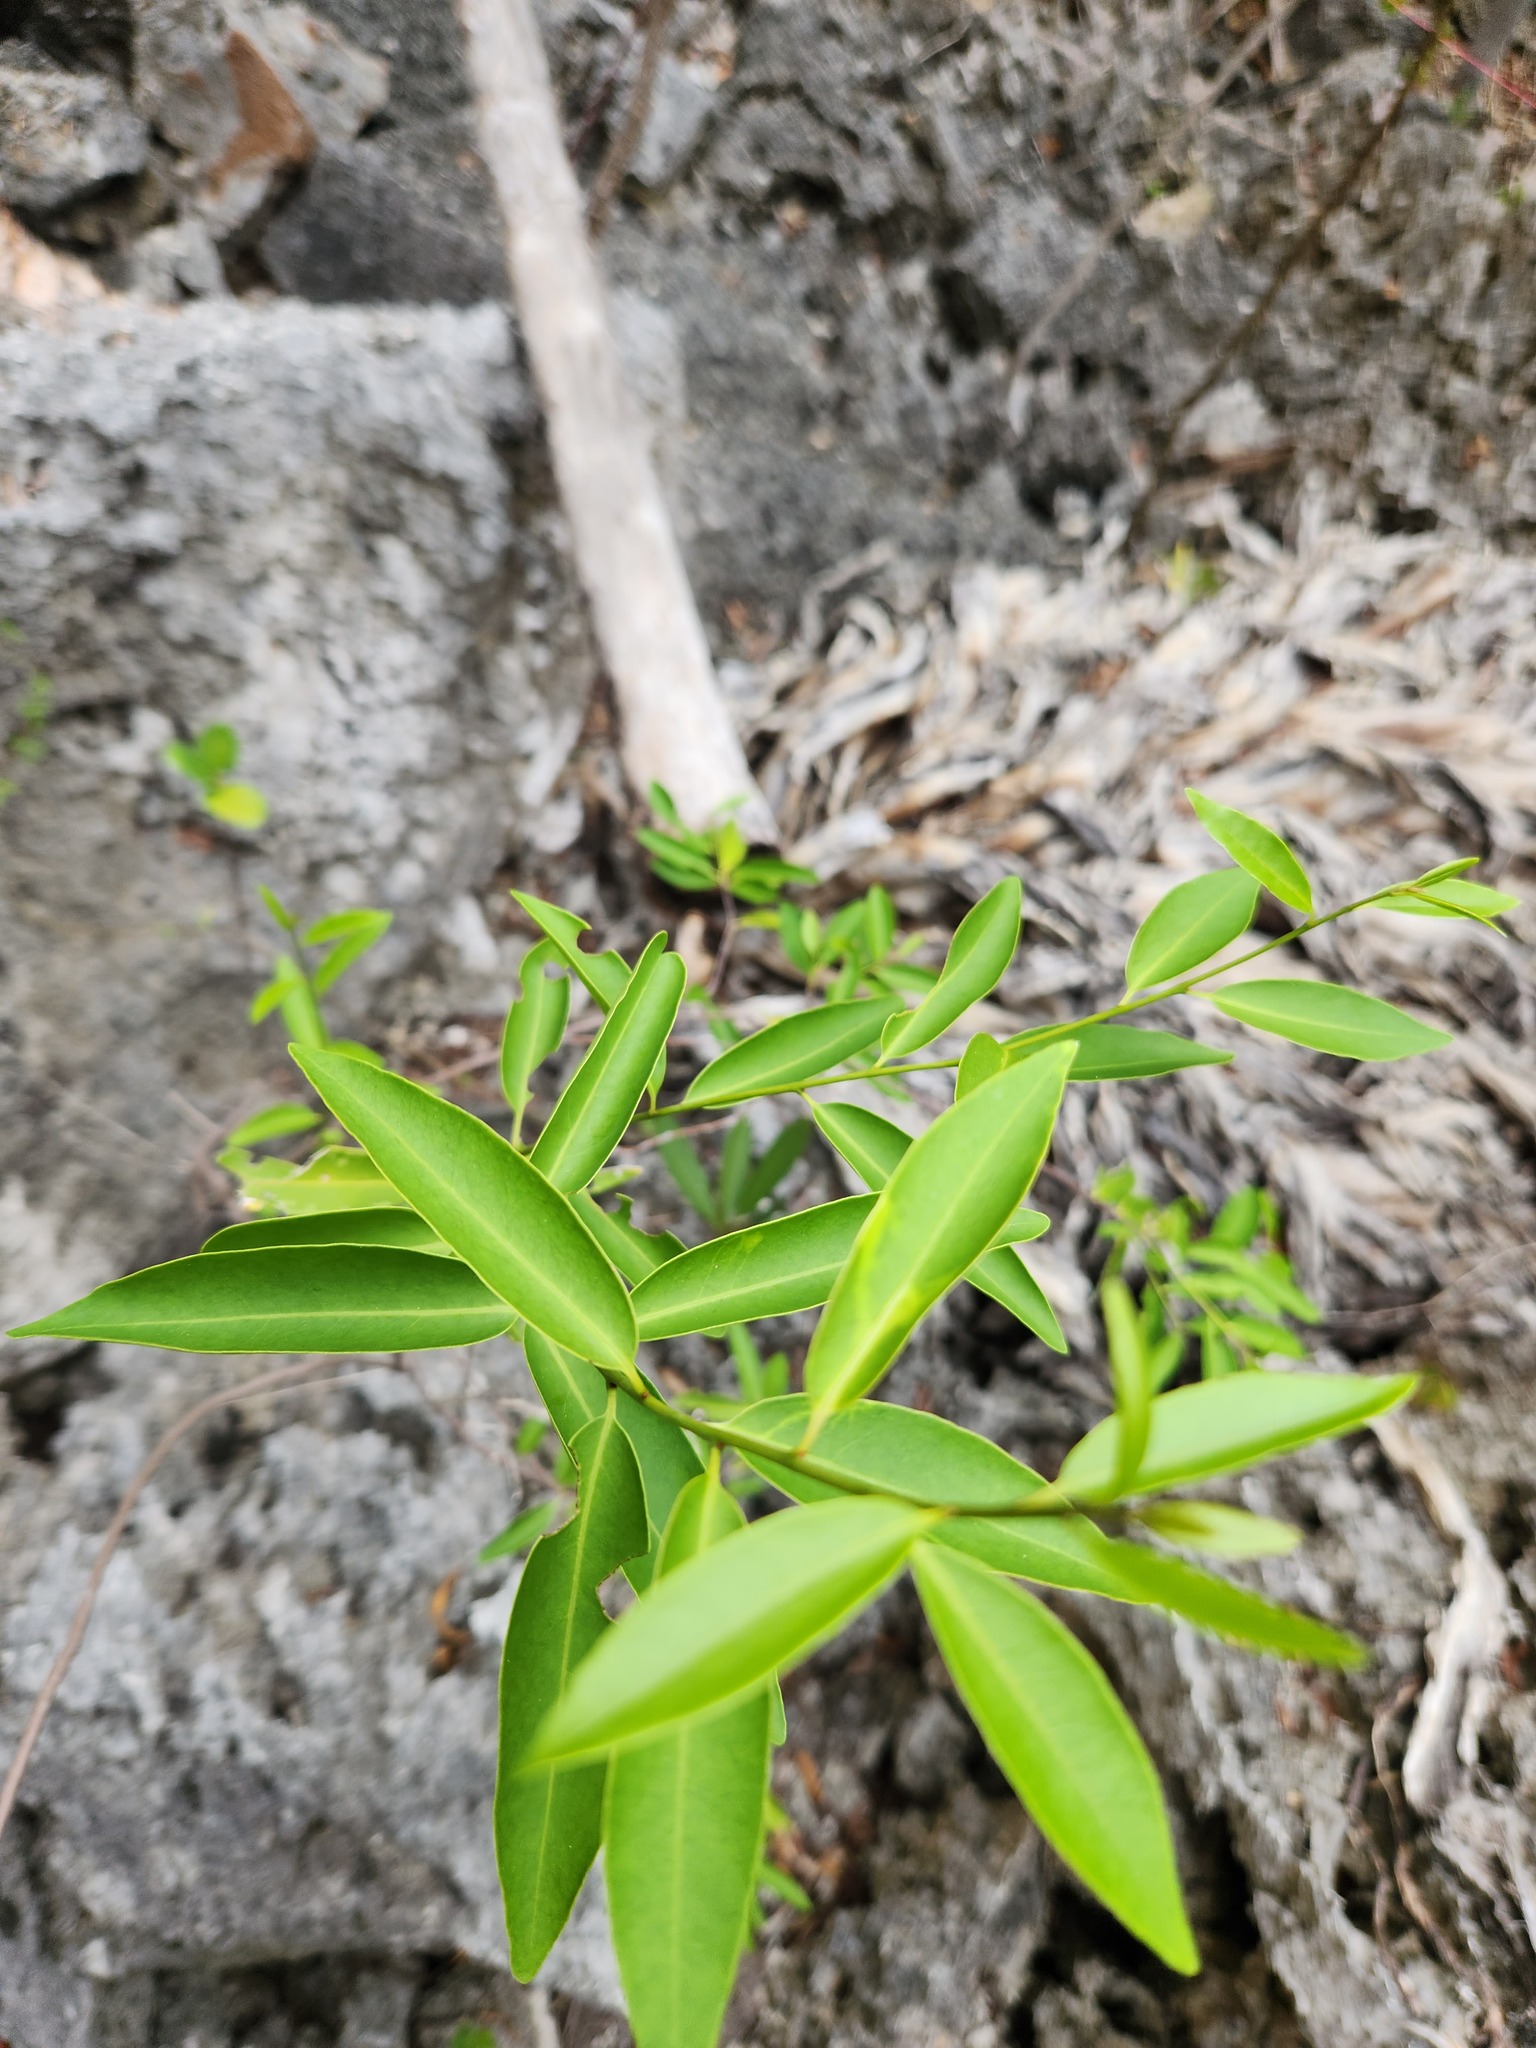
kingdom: Plantae
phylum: Tracheophyta
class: Magnoliopsida
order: Caryophyllales
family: Nyctaginaceae
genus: Guapira
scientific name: Guapira discolor
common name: Beeftree
